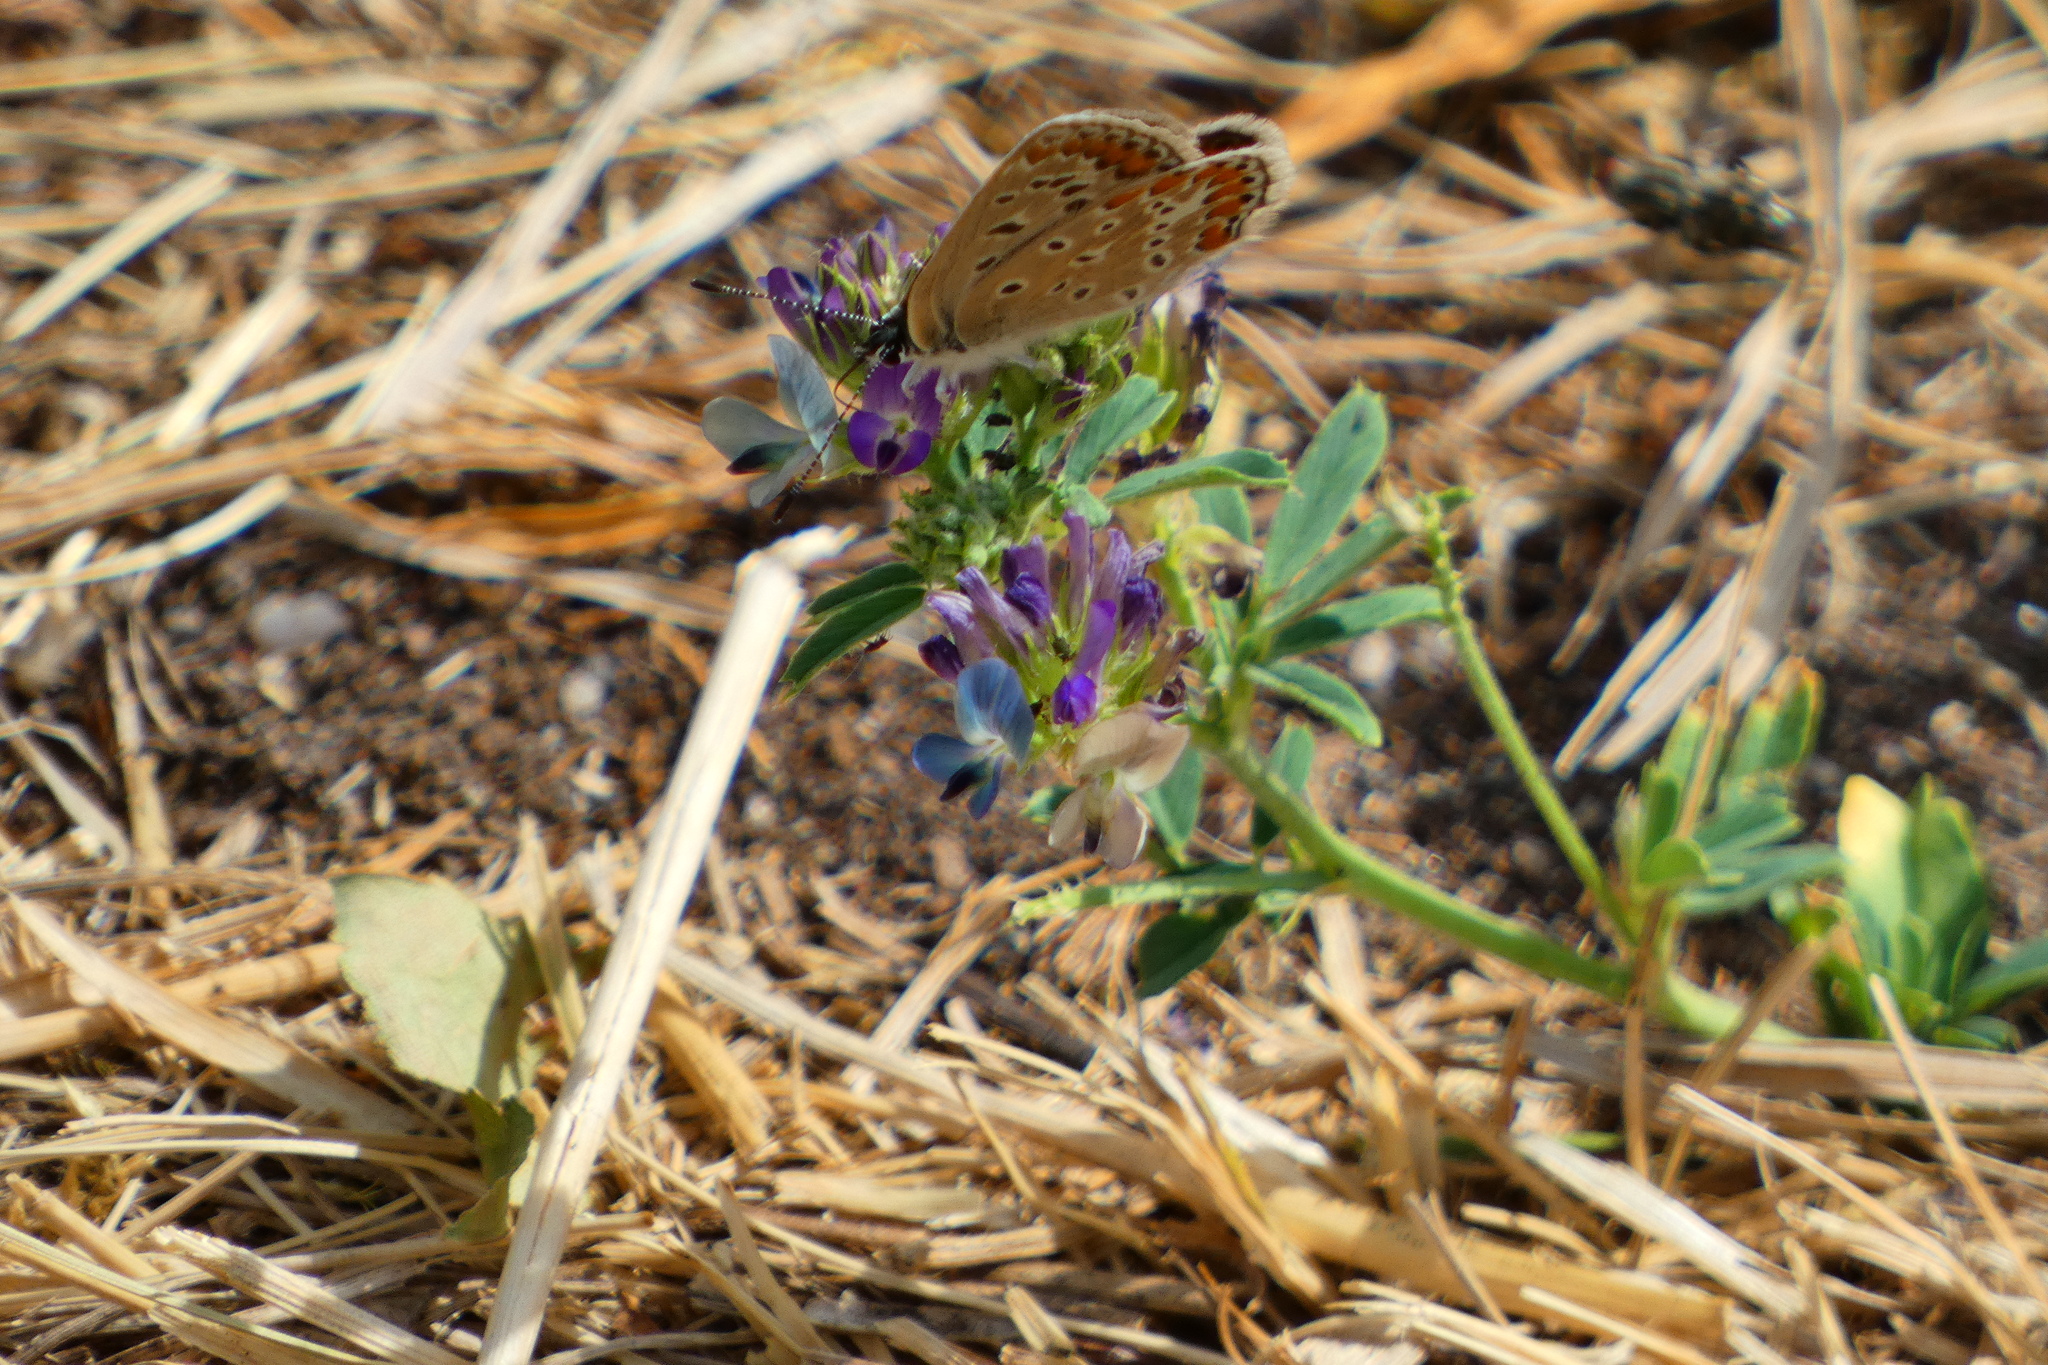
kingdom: Animalia
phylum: Arthropoda
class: Insecta
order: Lepidoptera
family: Lycaenidae
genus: Polyommatus
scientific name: Polyommatus icarus
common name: Common blue
